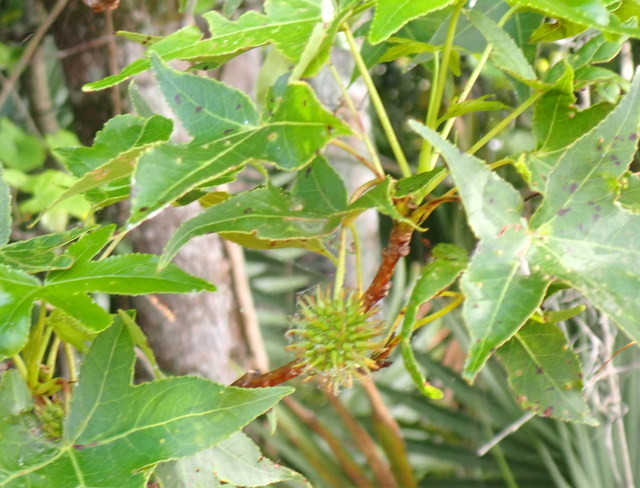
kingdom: Plantae
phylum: Tracheophyta
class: Magnoliopsida
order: Saxifragales
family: Altingiaceae
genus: Liquidambar
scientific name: Liquidambar styraciflua
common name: Sweet gum
